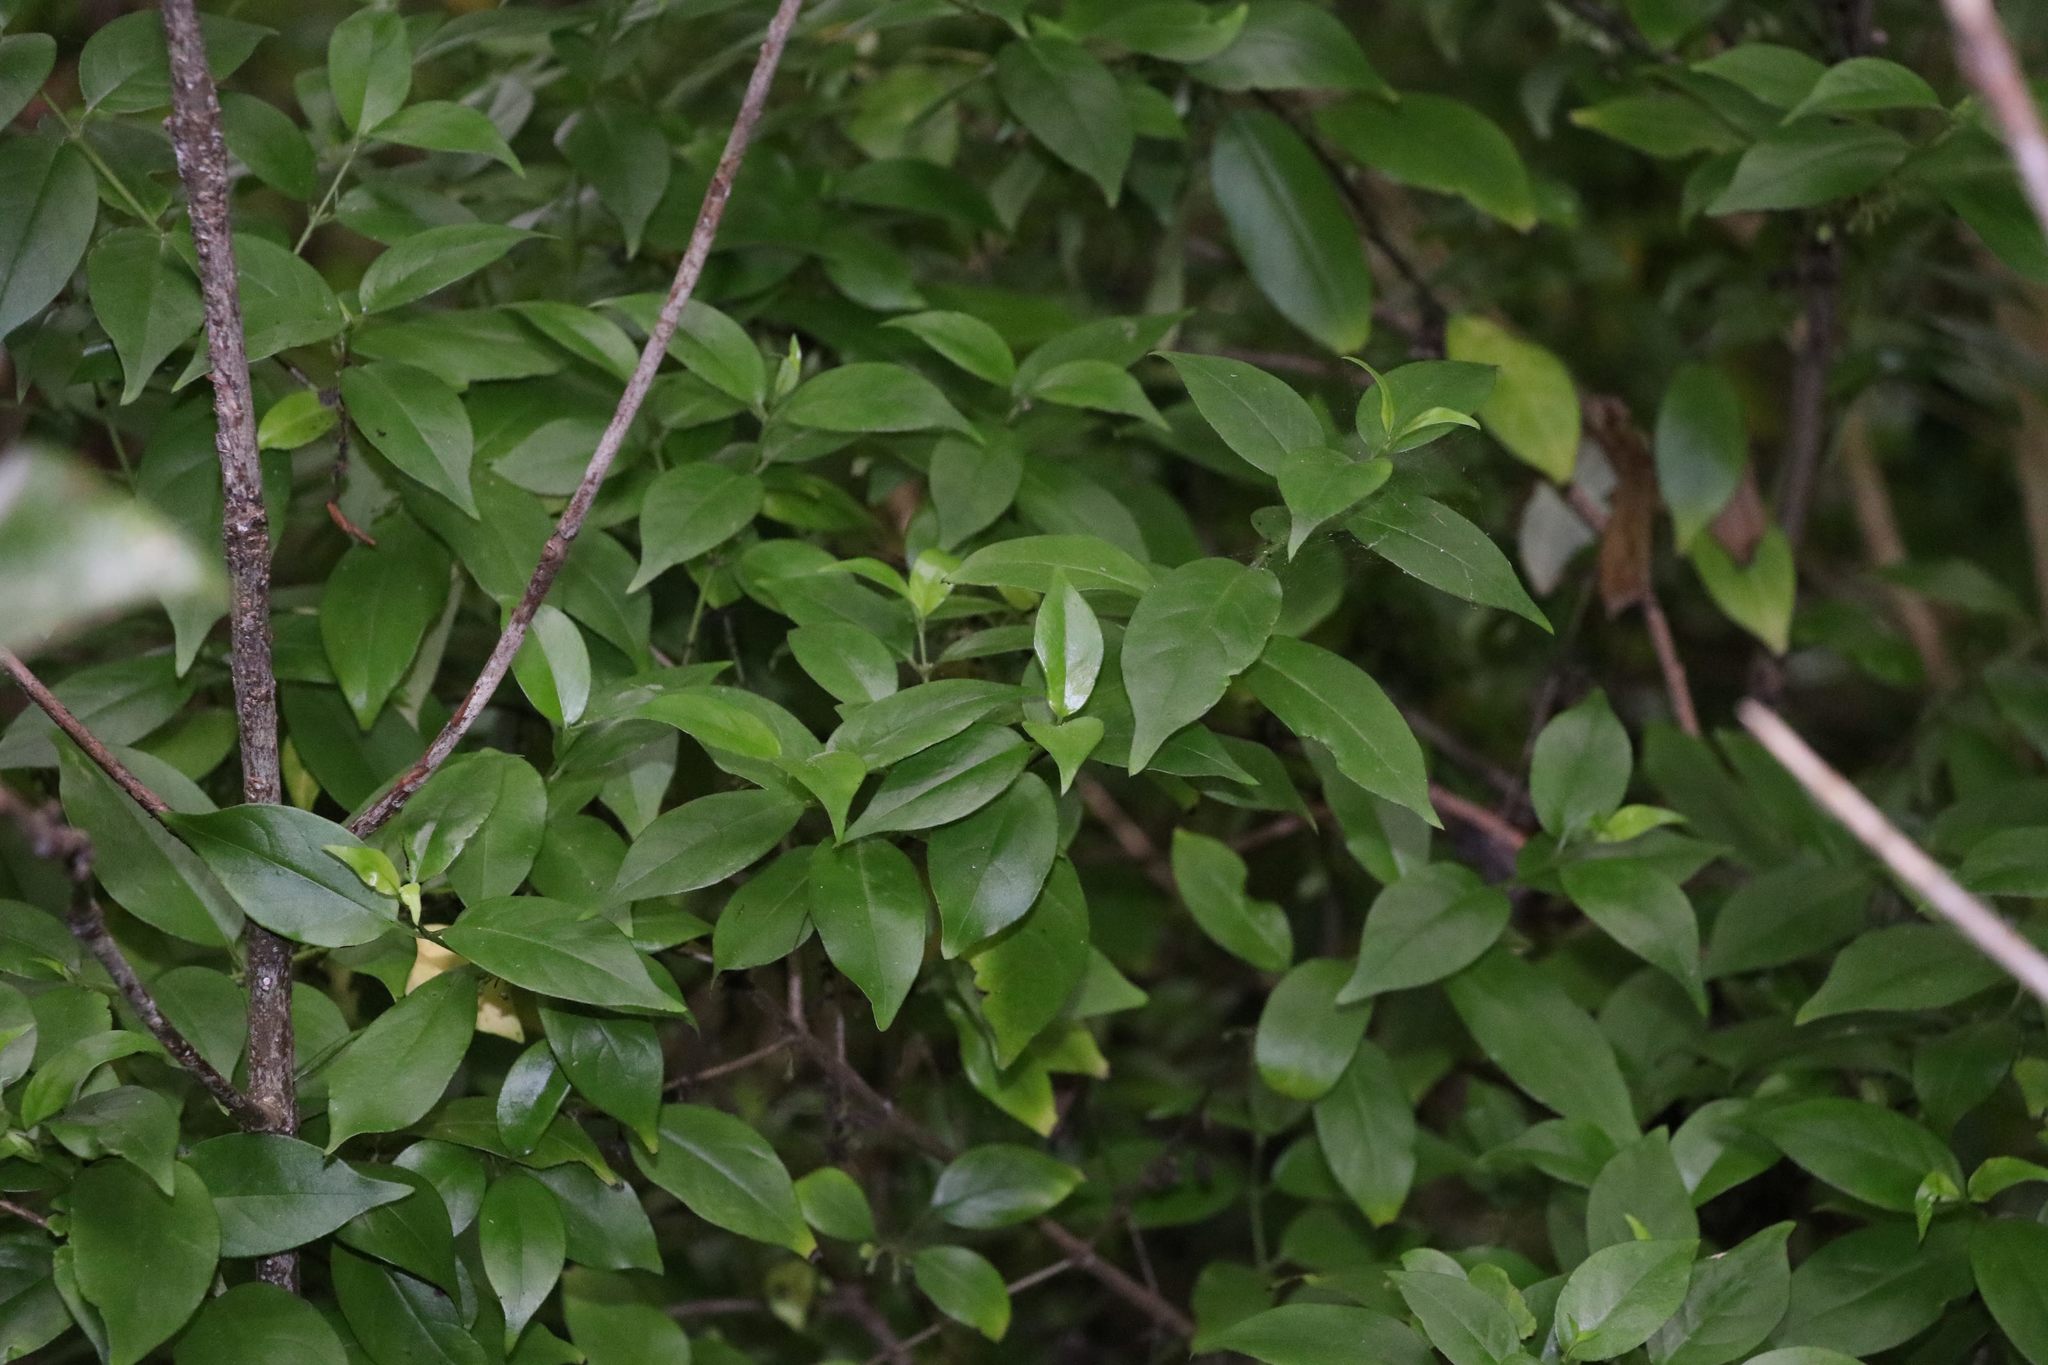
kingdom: Plantae
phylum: Tracheophyta
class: Magnoliopsida
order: Gentianales
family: Loganiaceae
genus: Geniostoma
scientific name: Geniostoma ligustrifolium
